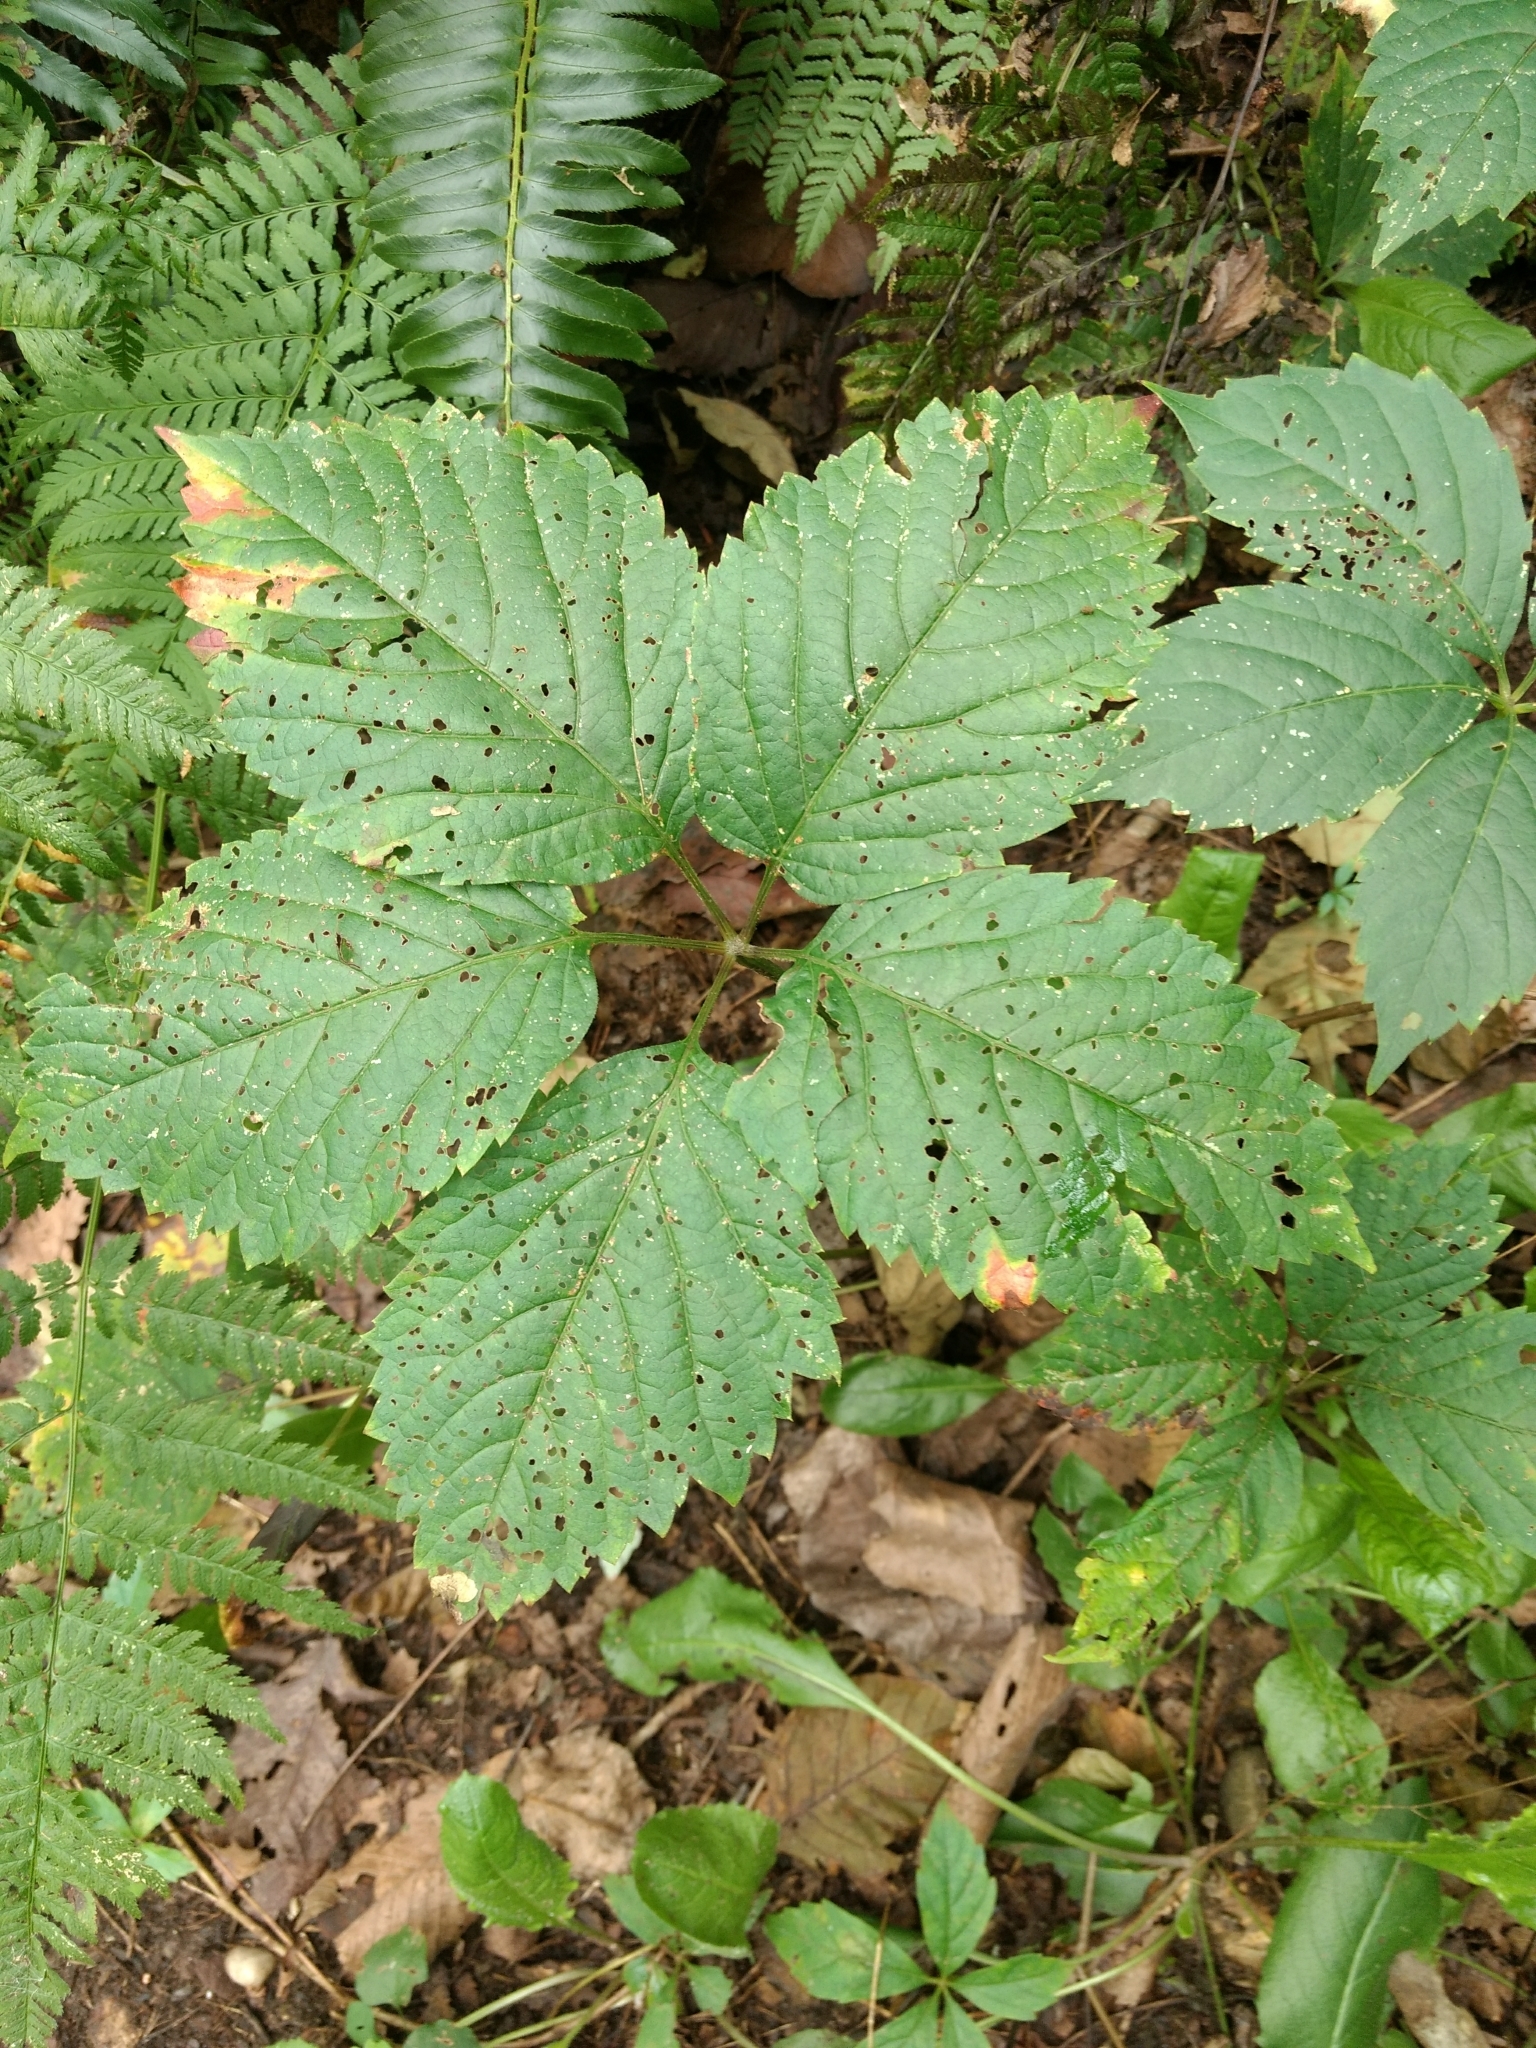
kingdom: Plantae
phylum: Tracheophyta
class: Magnoliopsida
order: Vitales
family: Vitaceae
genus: Parthenocissus
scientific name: Parthenocissus inserta
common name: False virginia-creeper
